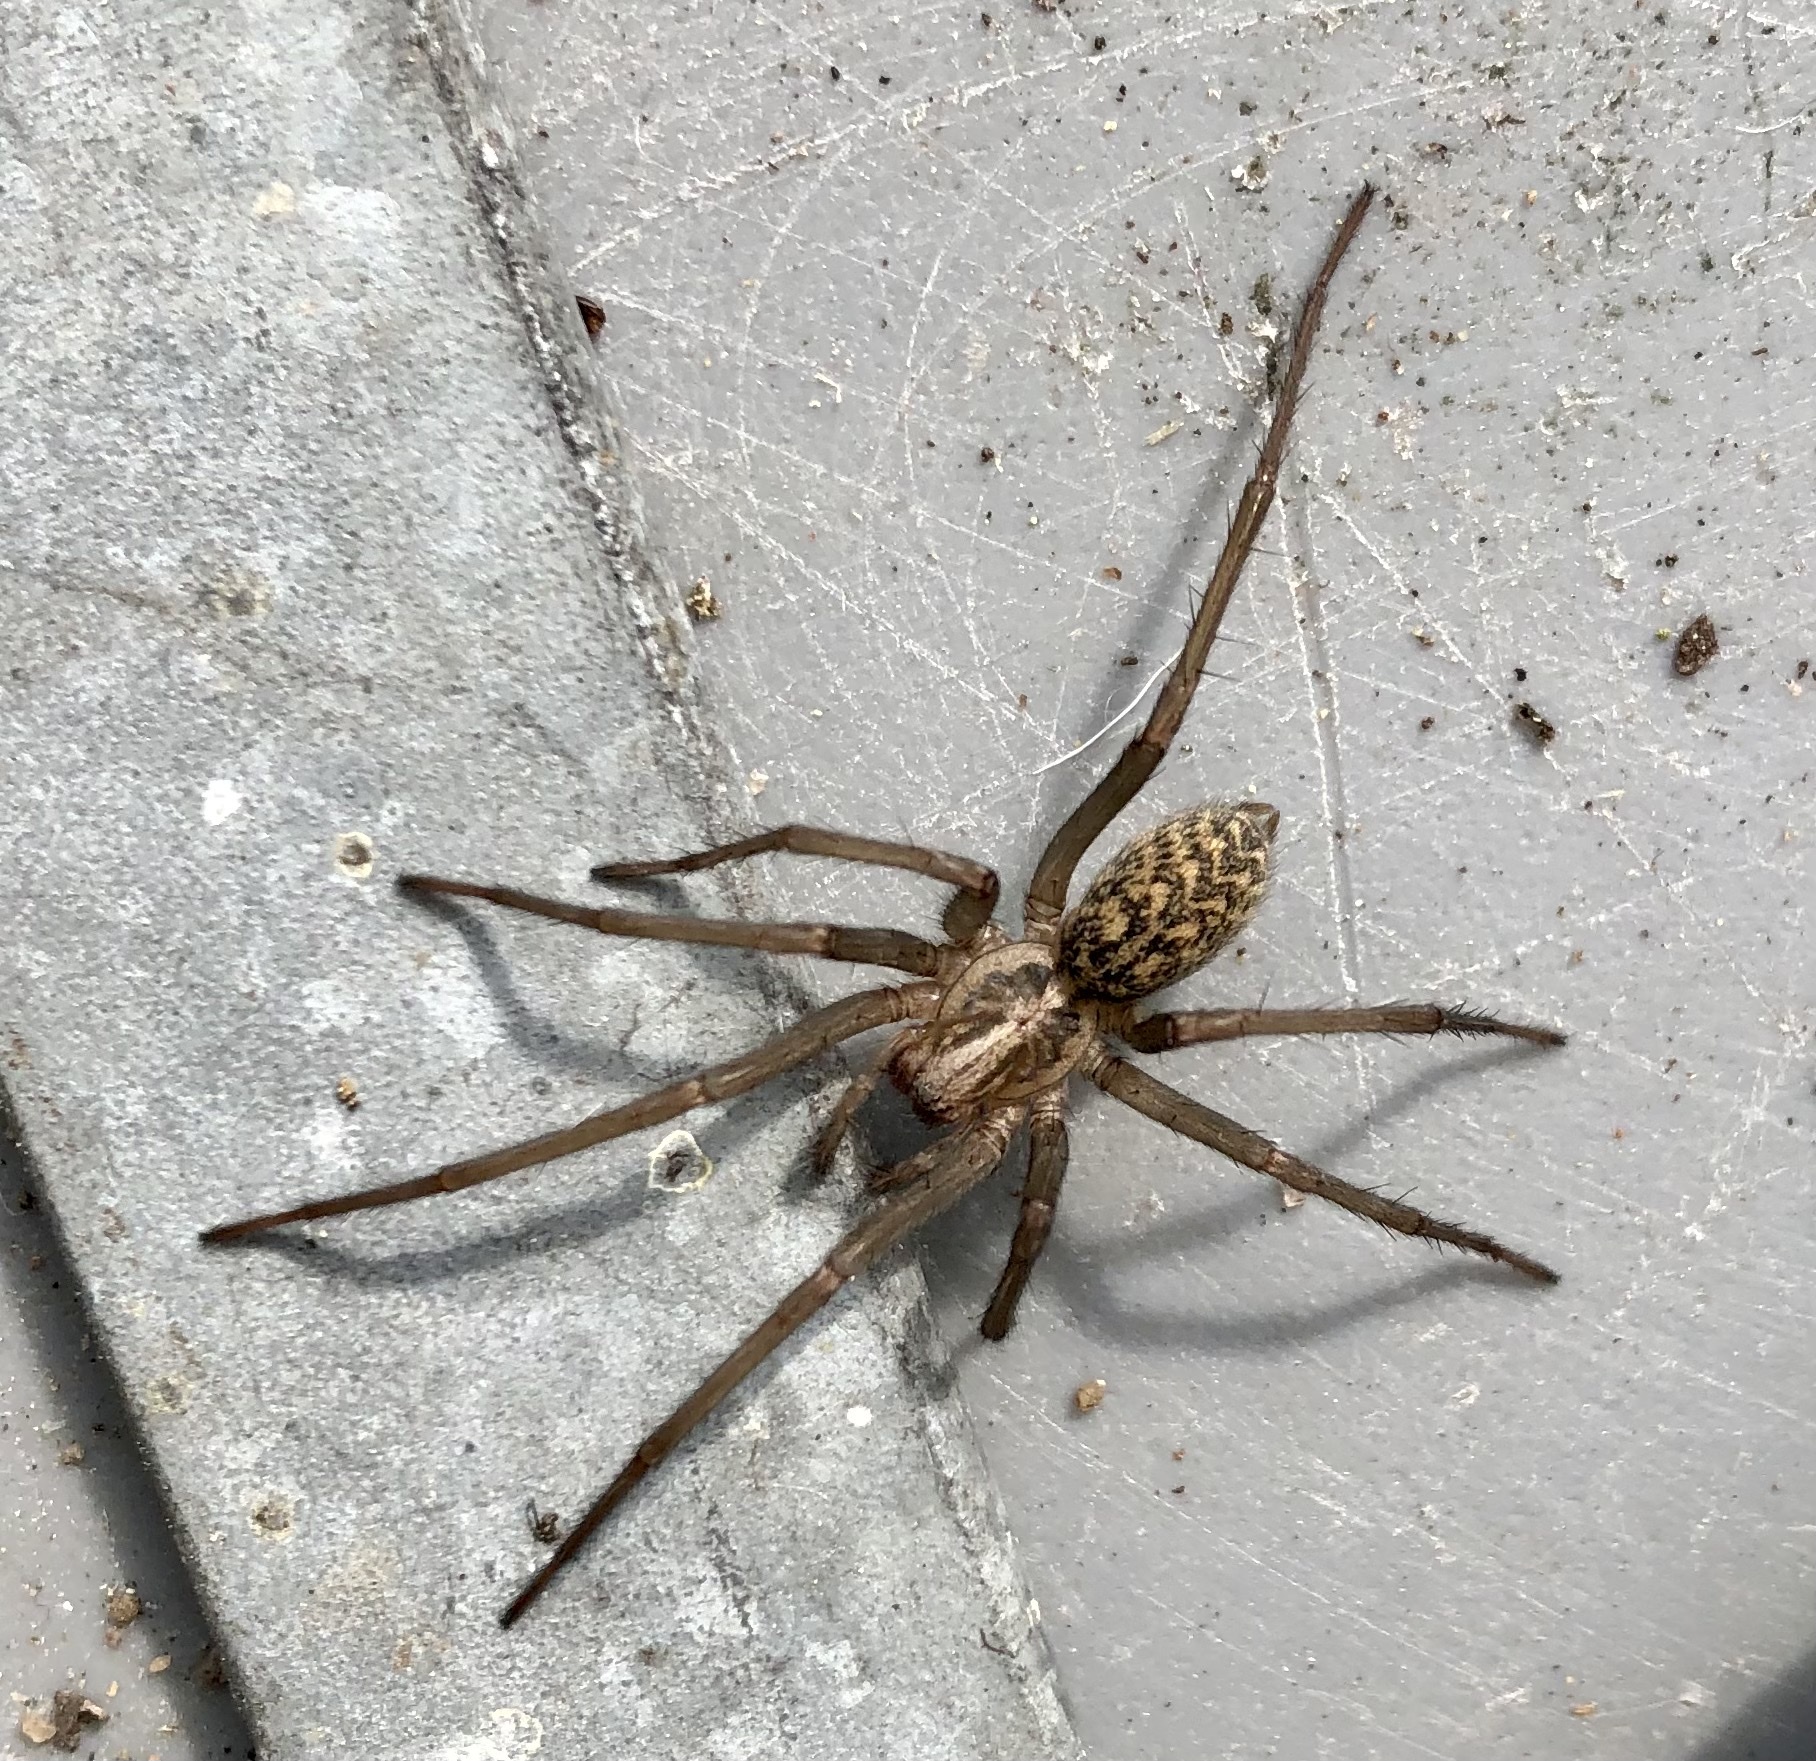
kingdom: Animalia
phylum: Arthropoda
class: Arachnida
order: Araneae
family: Agelenidae
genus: Eratigena
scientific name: Eratigena atrica
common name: Giant house spider
